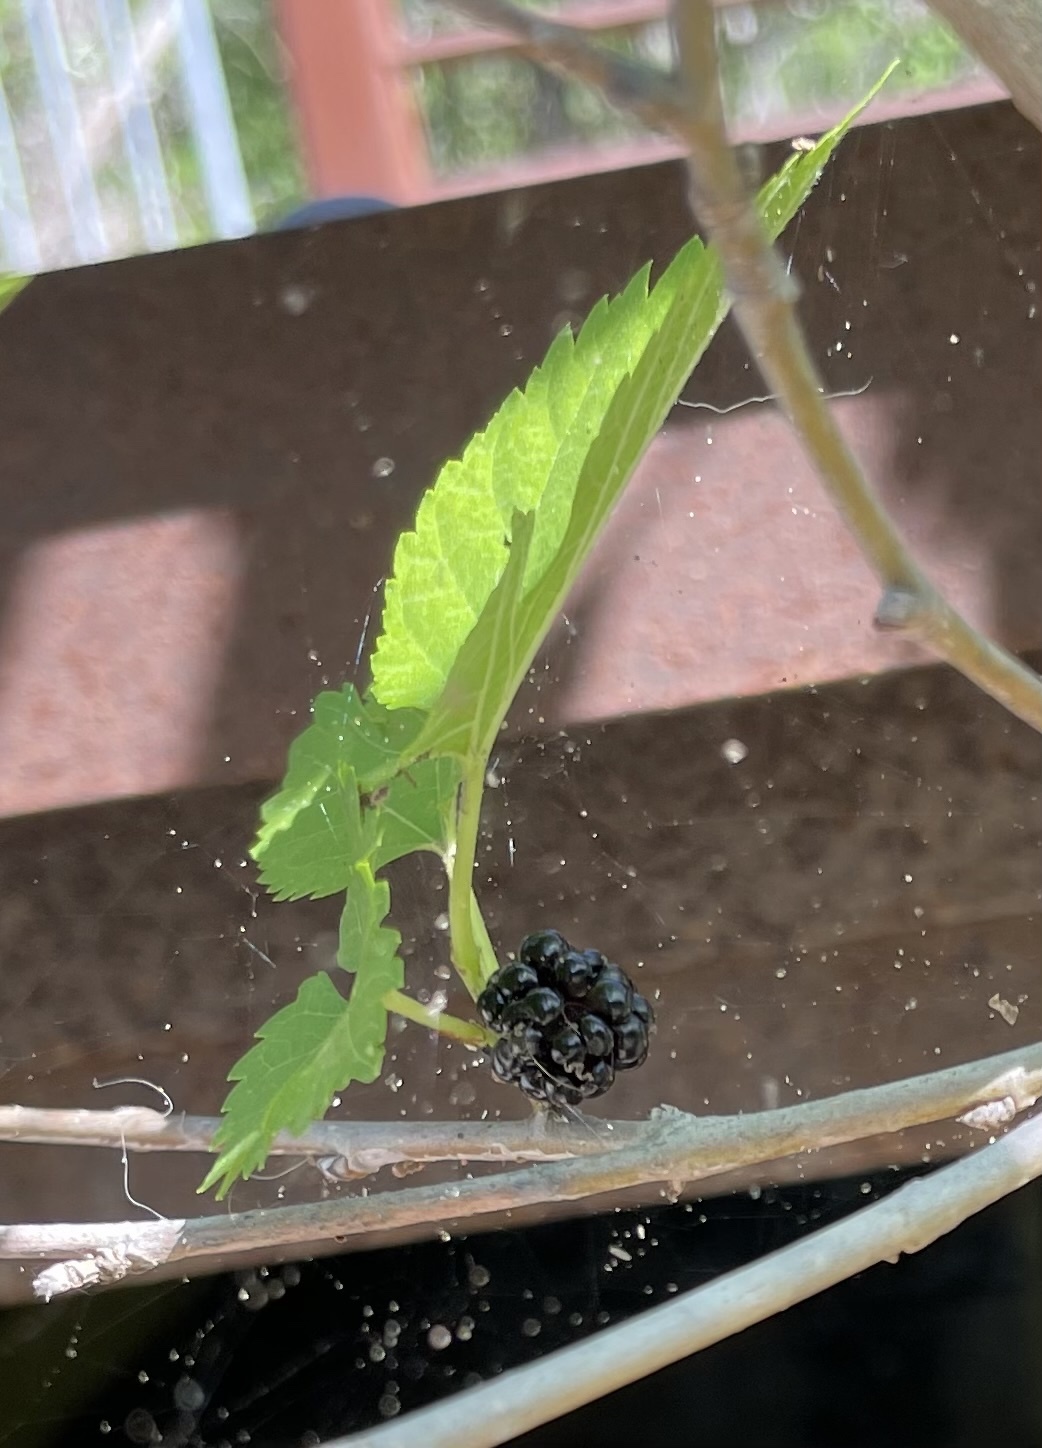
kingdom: Plantae
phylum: Tracheophyta
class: Magnoliopsida
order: Rosales
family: Moraceae
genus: Morus
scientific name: Morus alba
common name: White mulberry
